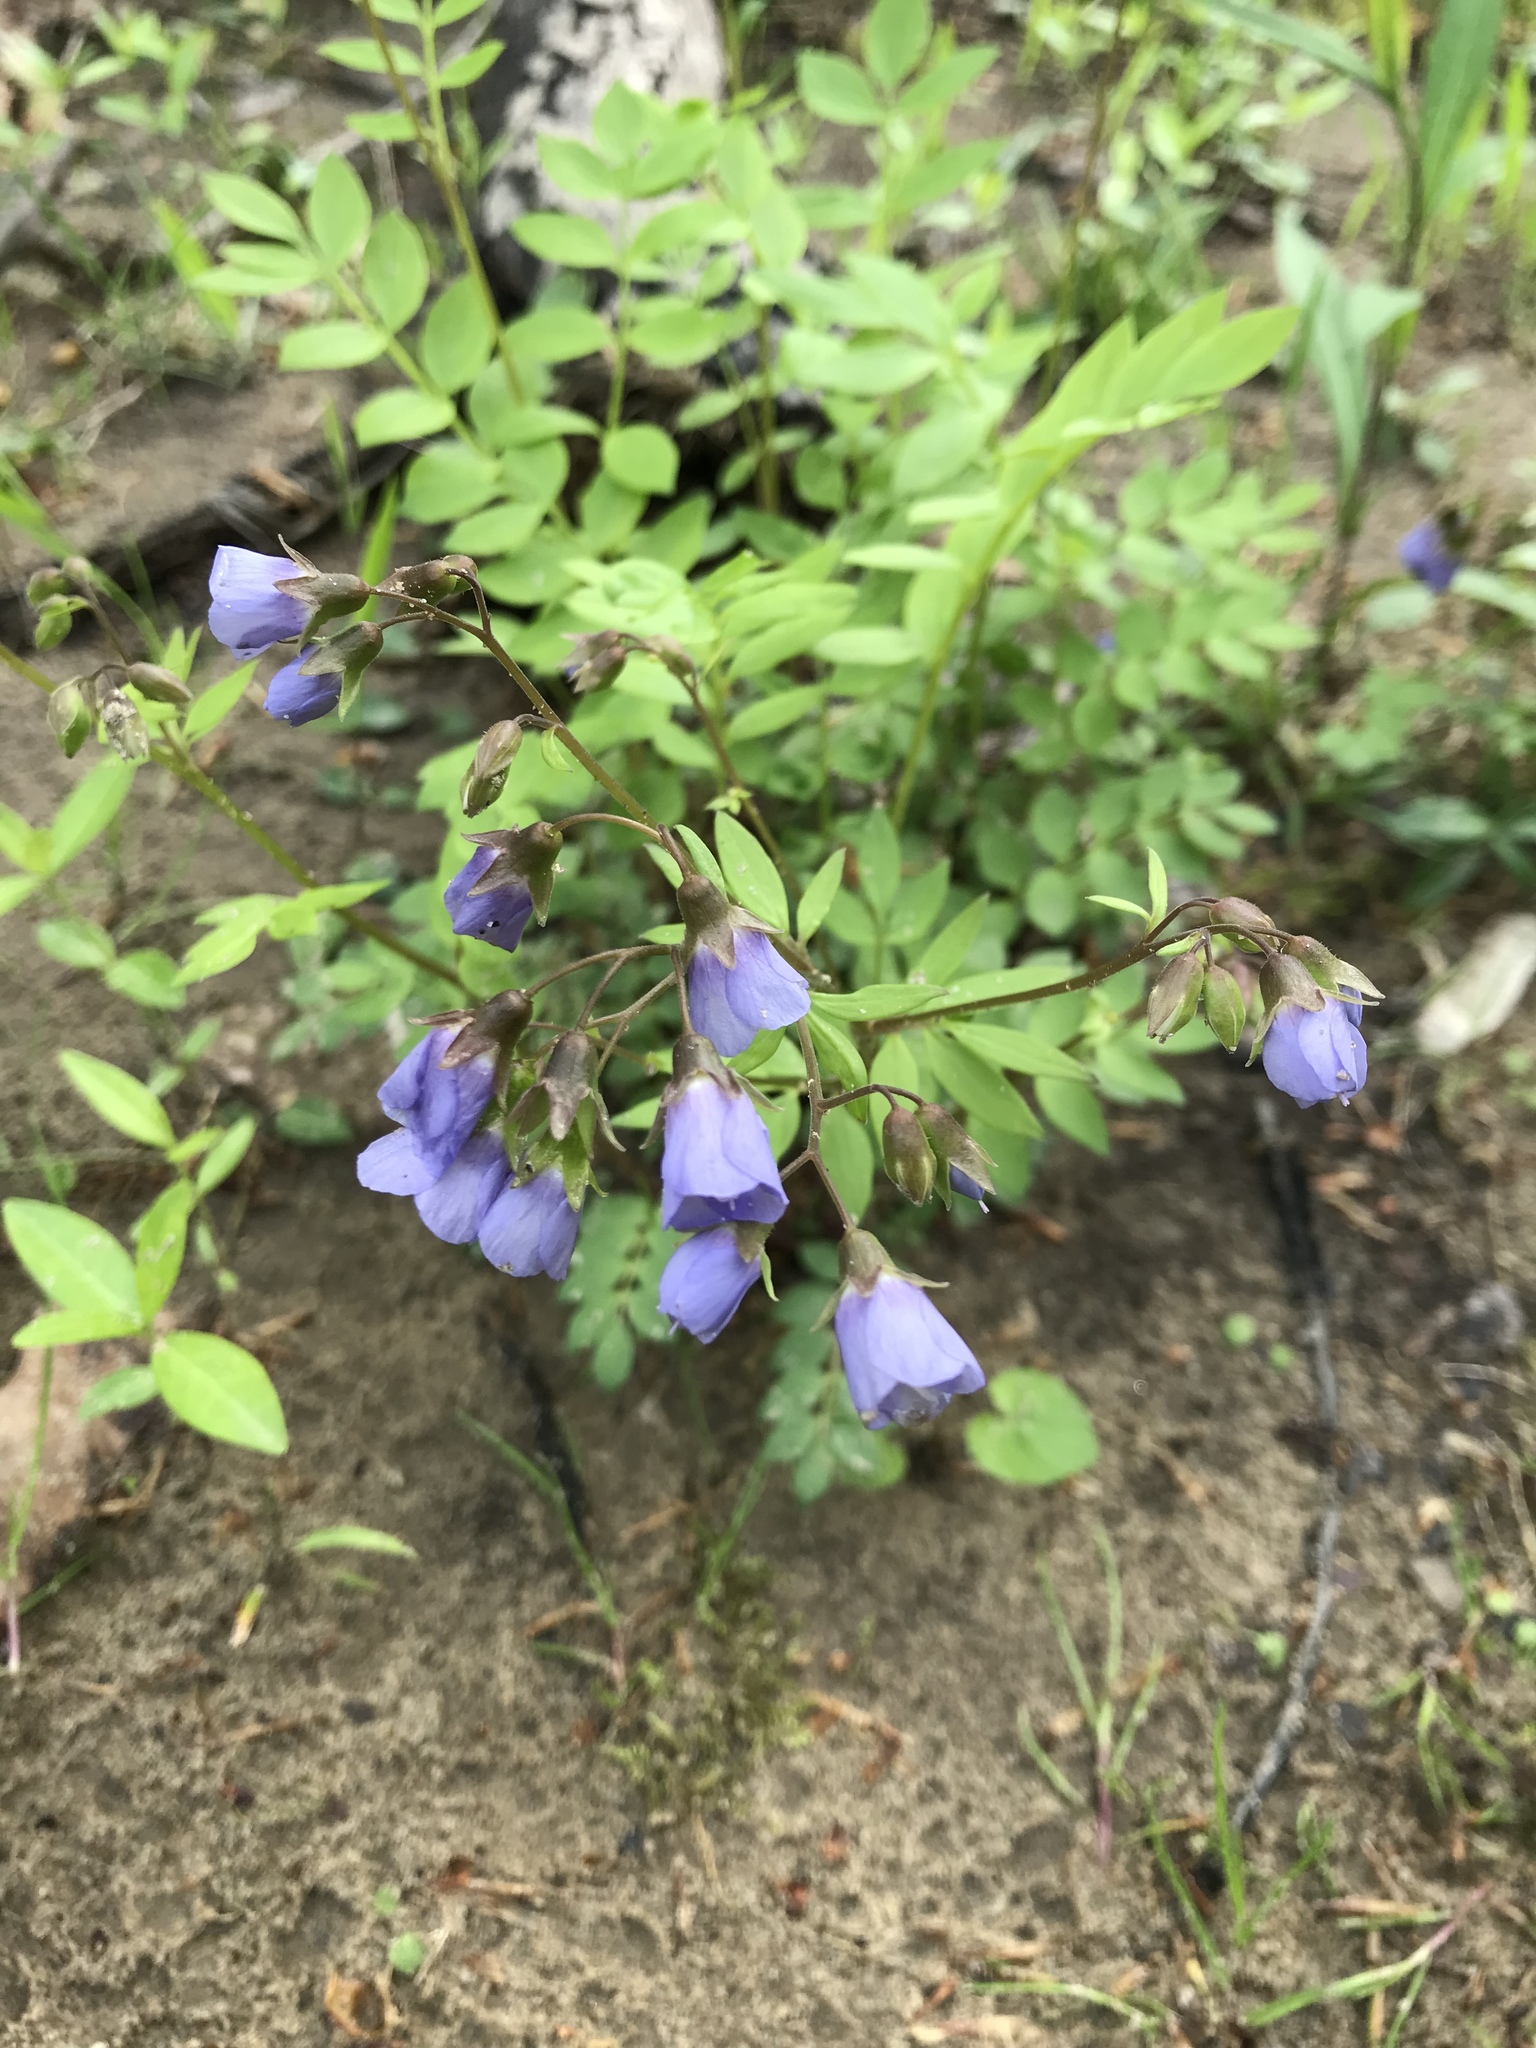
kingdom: Plantae
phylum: Tracheophyta
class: Magnoliopsida
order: Ericales
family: Polemoniaceae
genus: Polemonium
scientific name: Polemonium reptans
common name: Creeping jacob's-ladder
